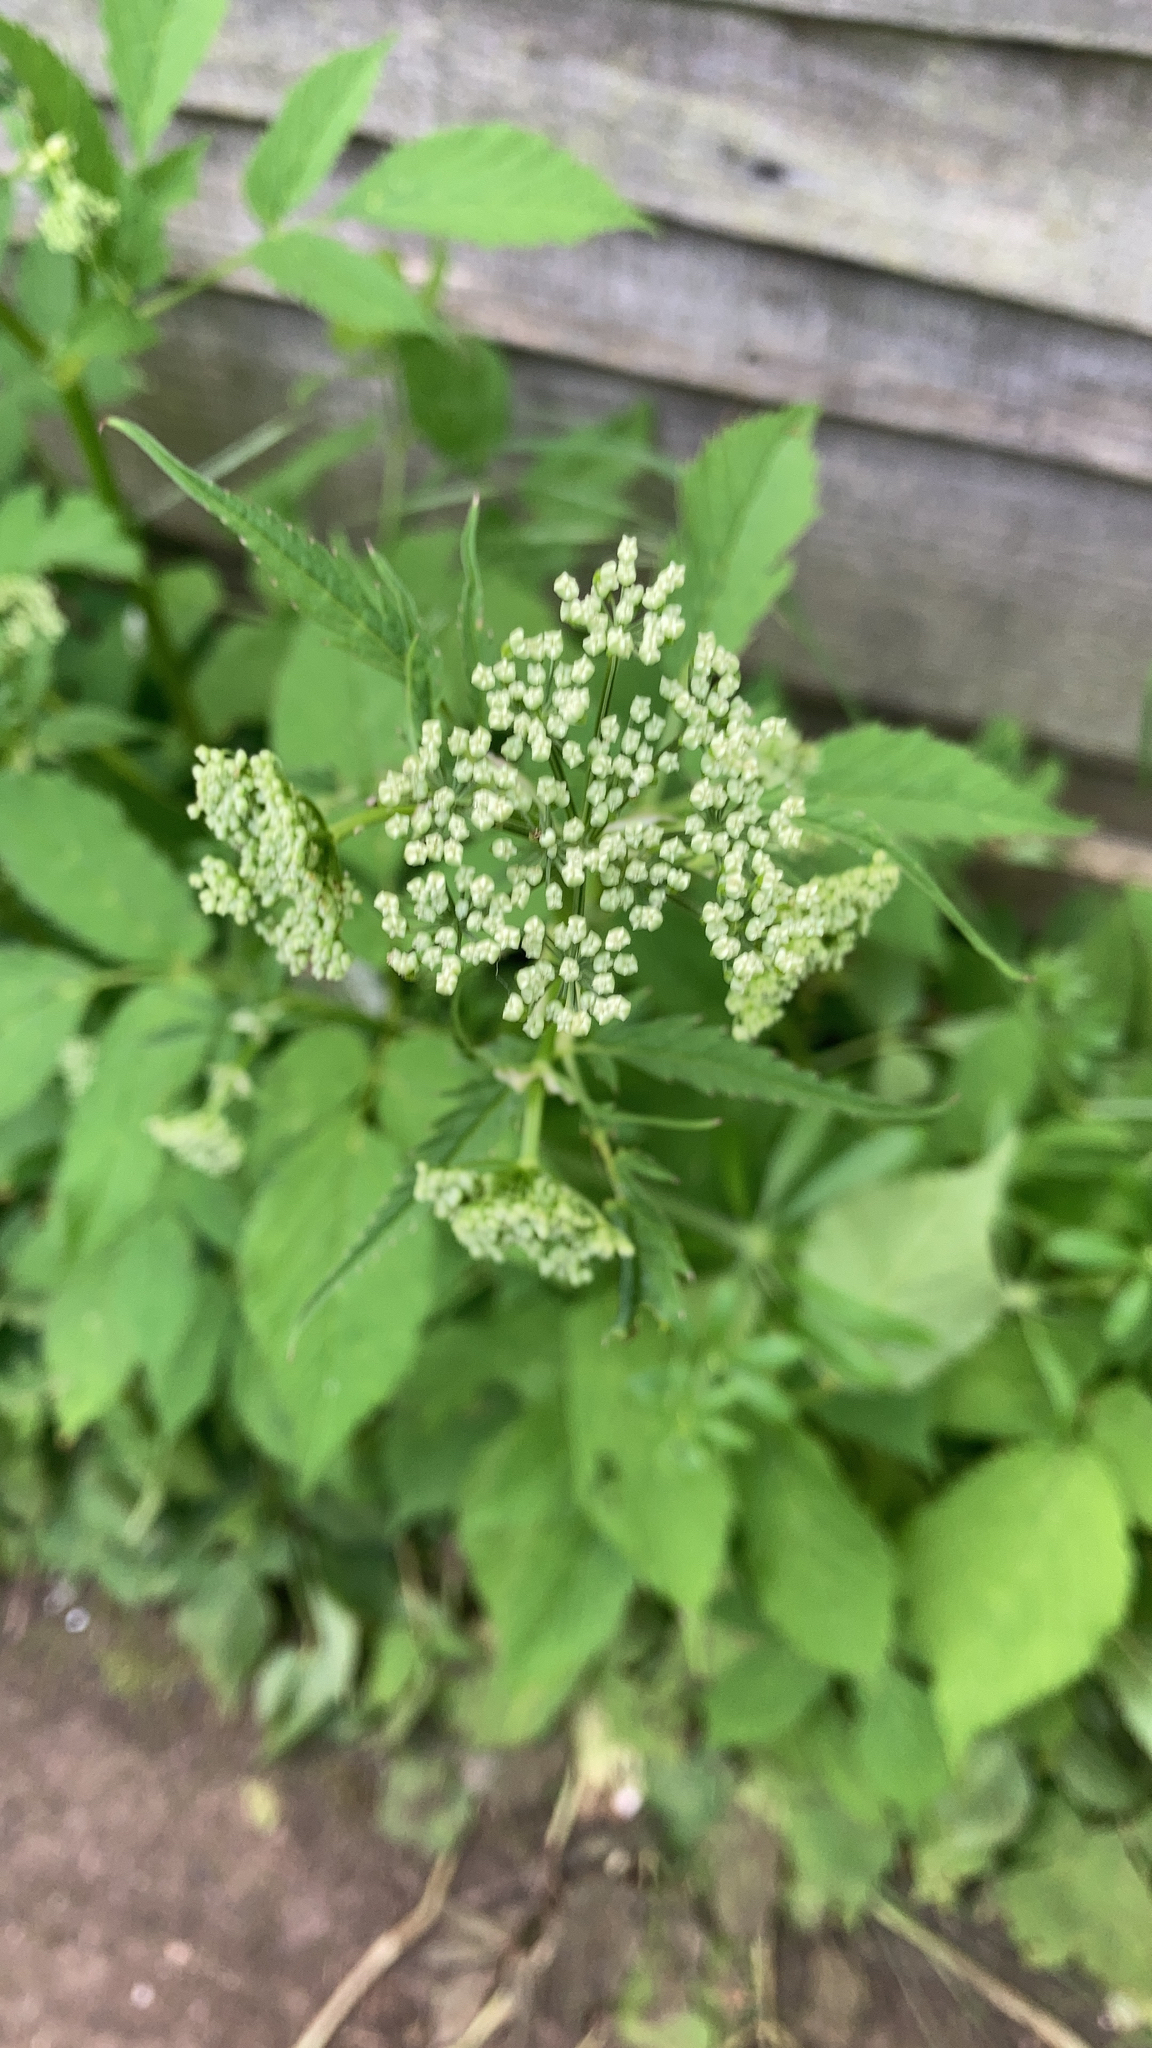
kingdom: Plantae
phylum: Tracheophyta
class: Magnoliopsida
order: Apiales
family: Apiaceae
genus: Aegopodium
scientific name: Aegopodium podagraria
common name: Ground-elder
